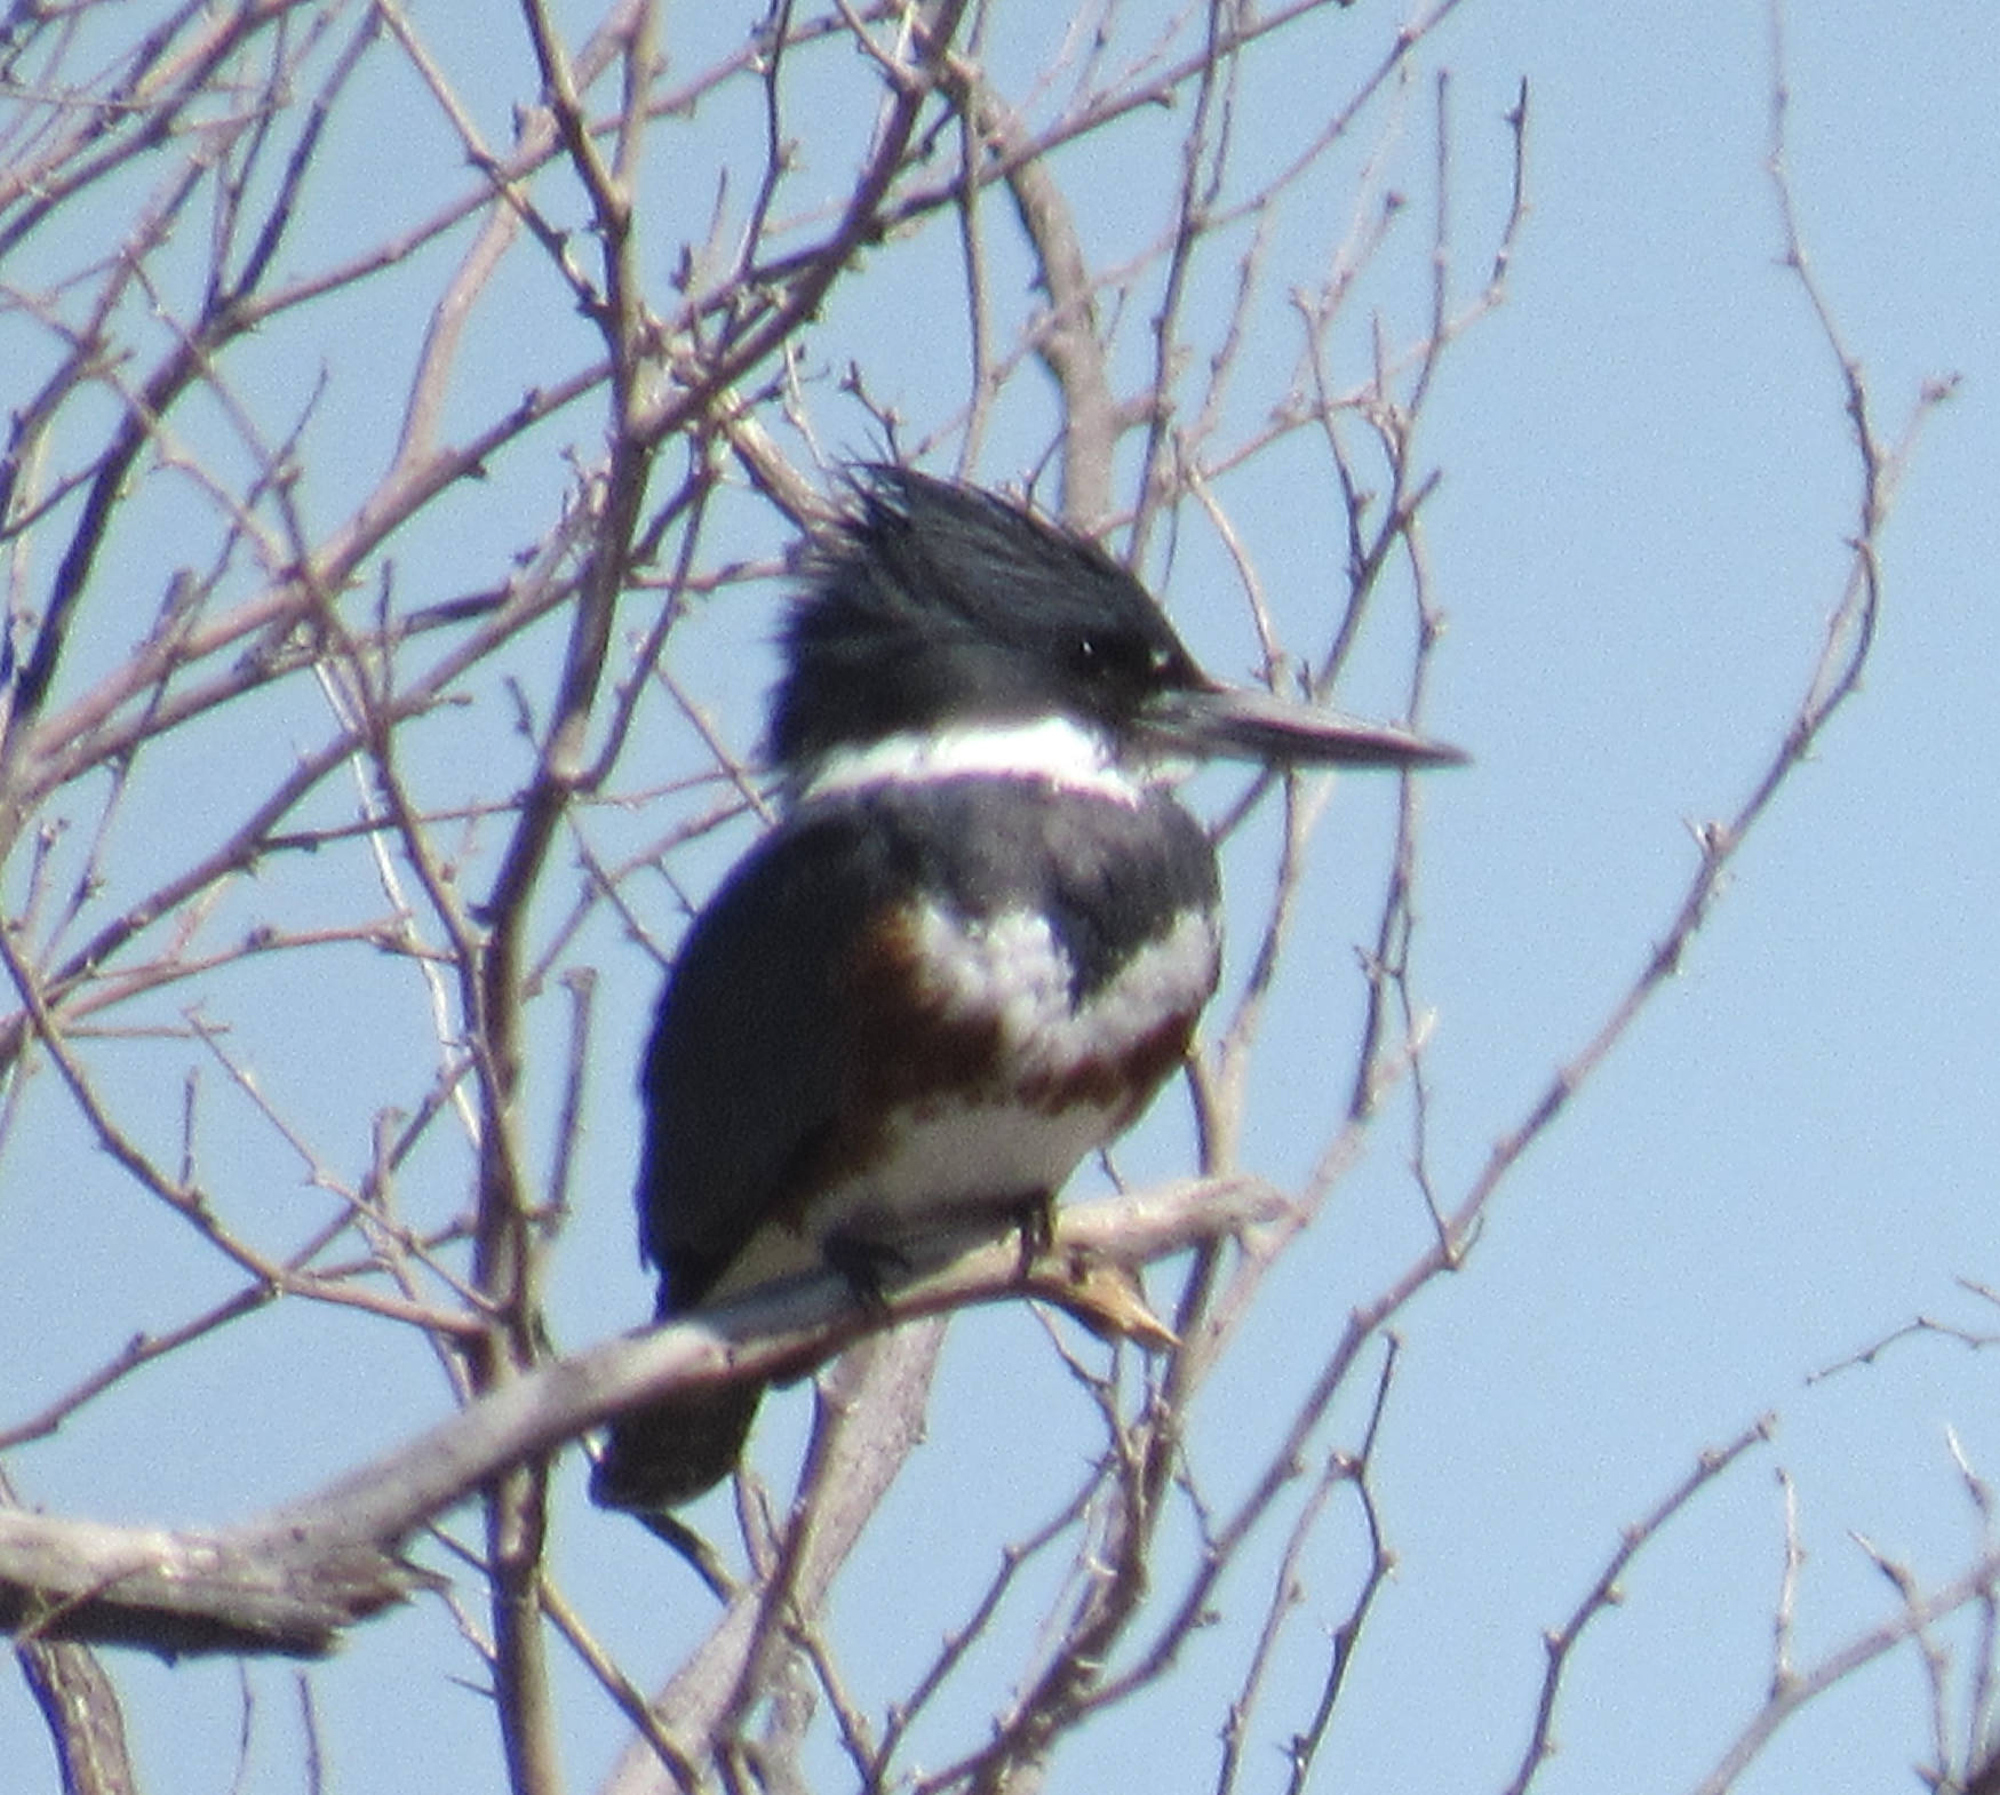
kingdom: Animalia
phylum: Chordata
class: Aves
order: Coraciiformes
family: Alcedinidae
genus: Megaceryle
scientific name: Megaceryle alcyon
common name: Belted kingfisher
